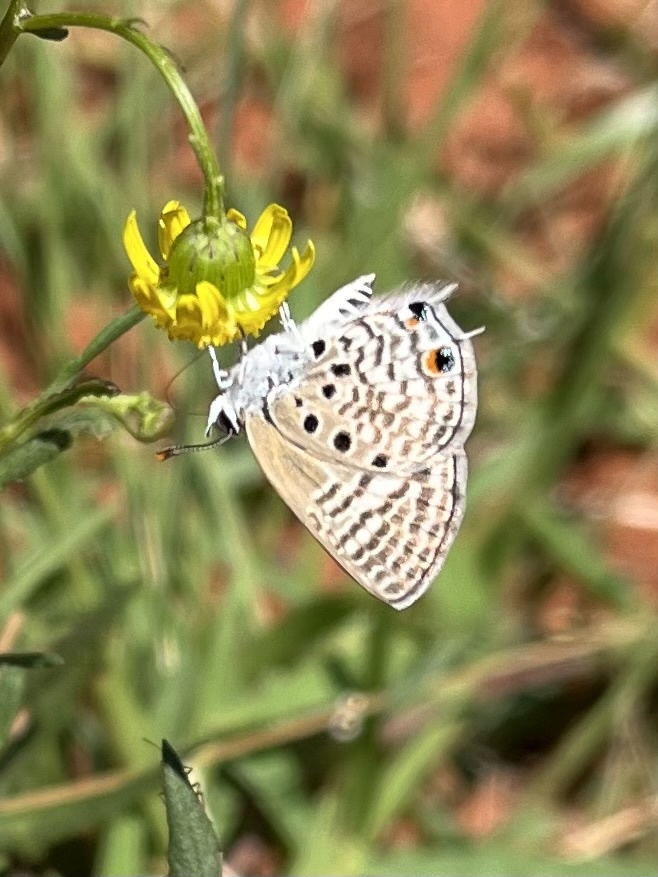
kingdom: Animalia
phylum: Arthropoda
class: Insecta
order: Lepidoptera
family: Lycaenidae
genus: Anthene
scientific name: Anthene amarah
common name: Black-striped hairtail
